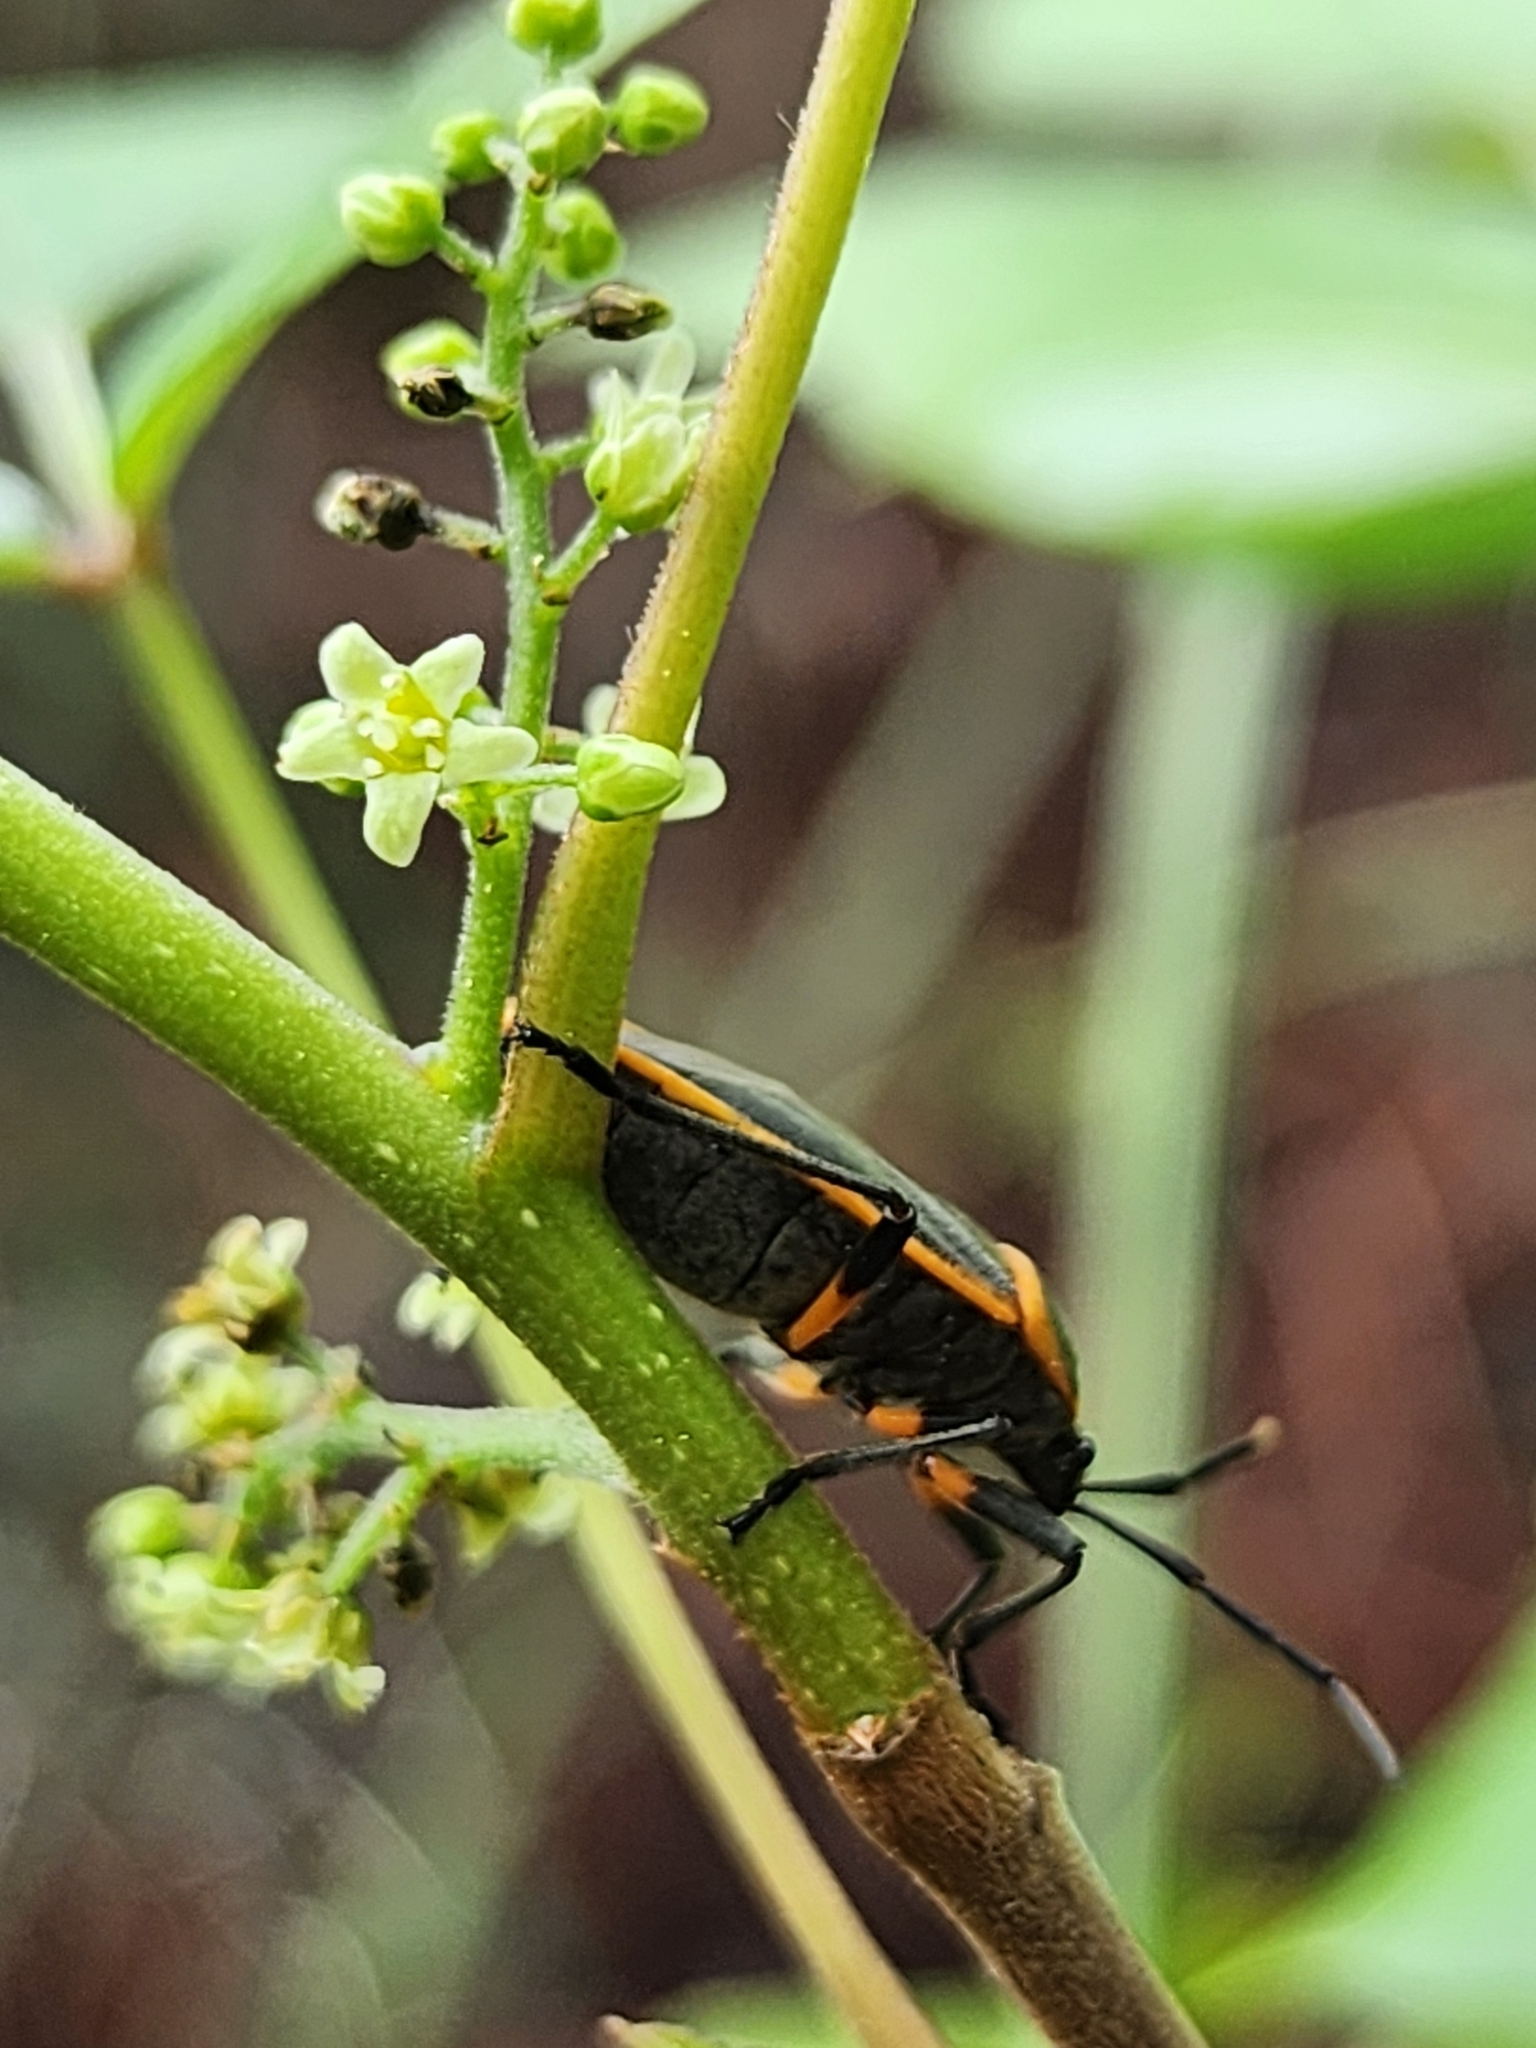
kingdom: Plantae
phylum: Tracheophyta
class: Magnoliopsida
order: Sapindales
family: Anacardiaceae
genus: Toxicodendron
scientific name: Toxicodendron radicans
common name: Poison ivy
